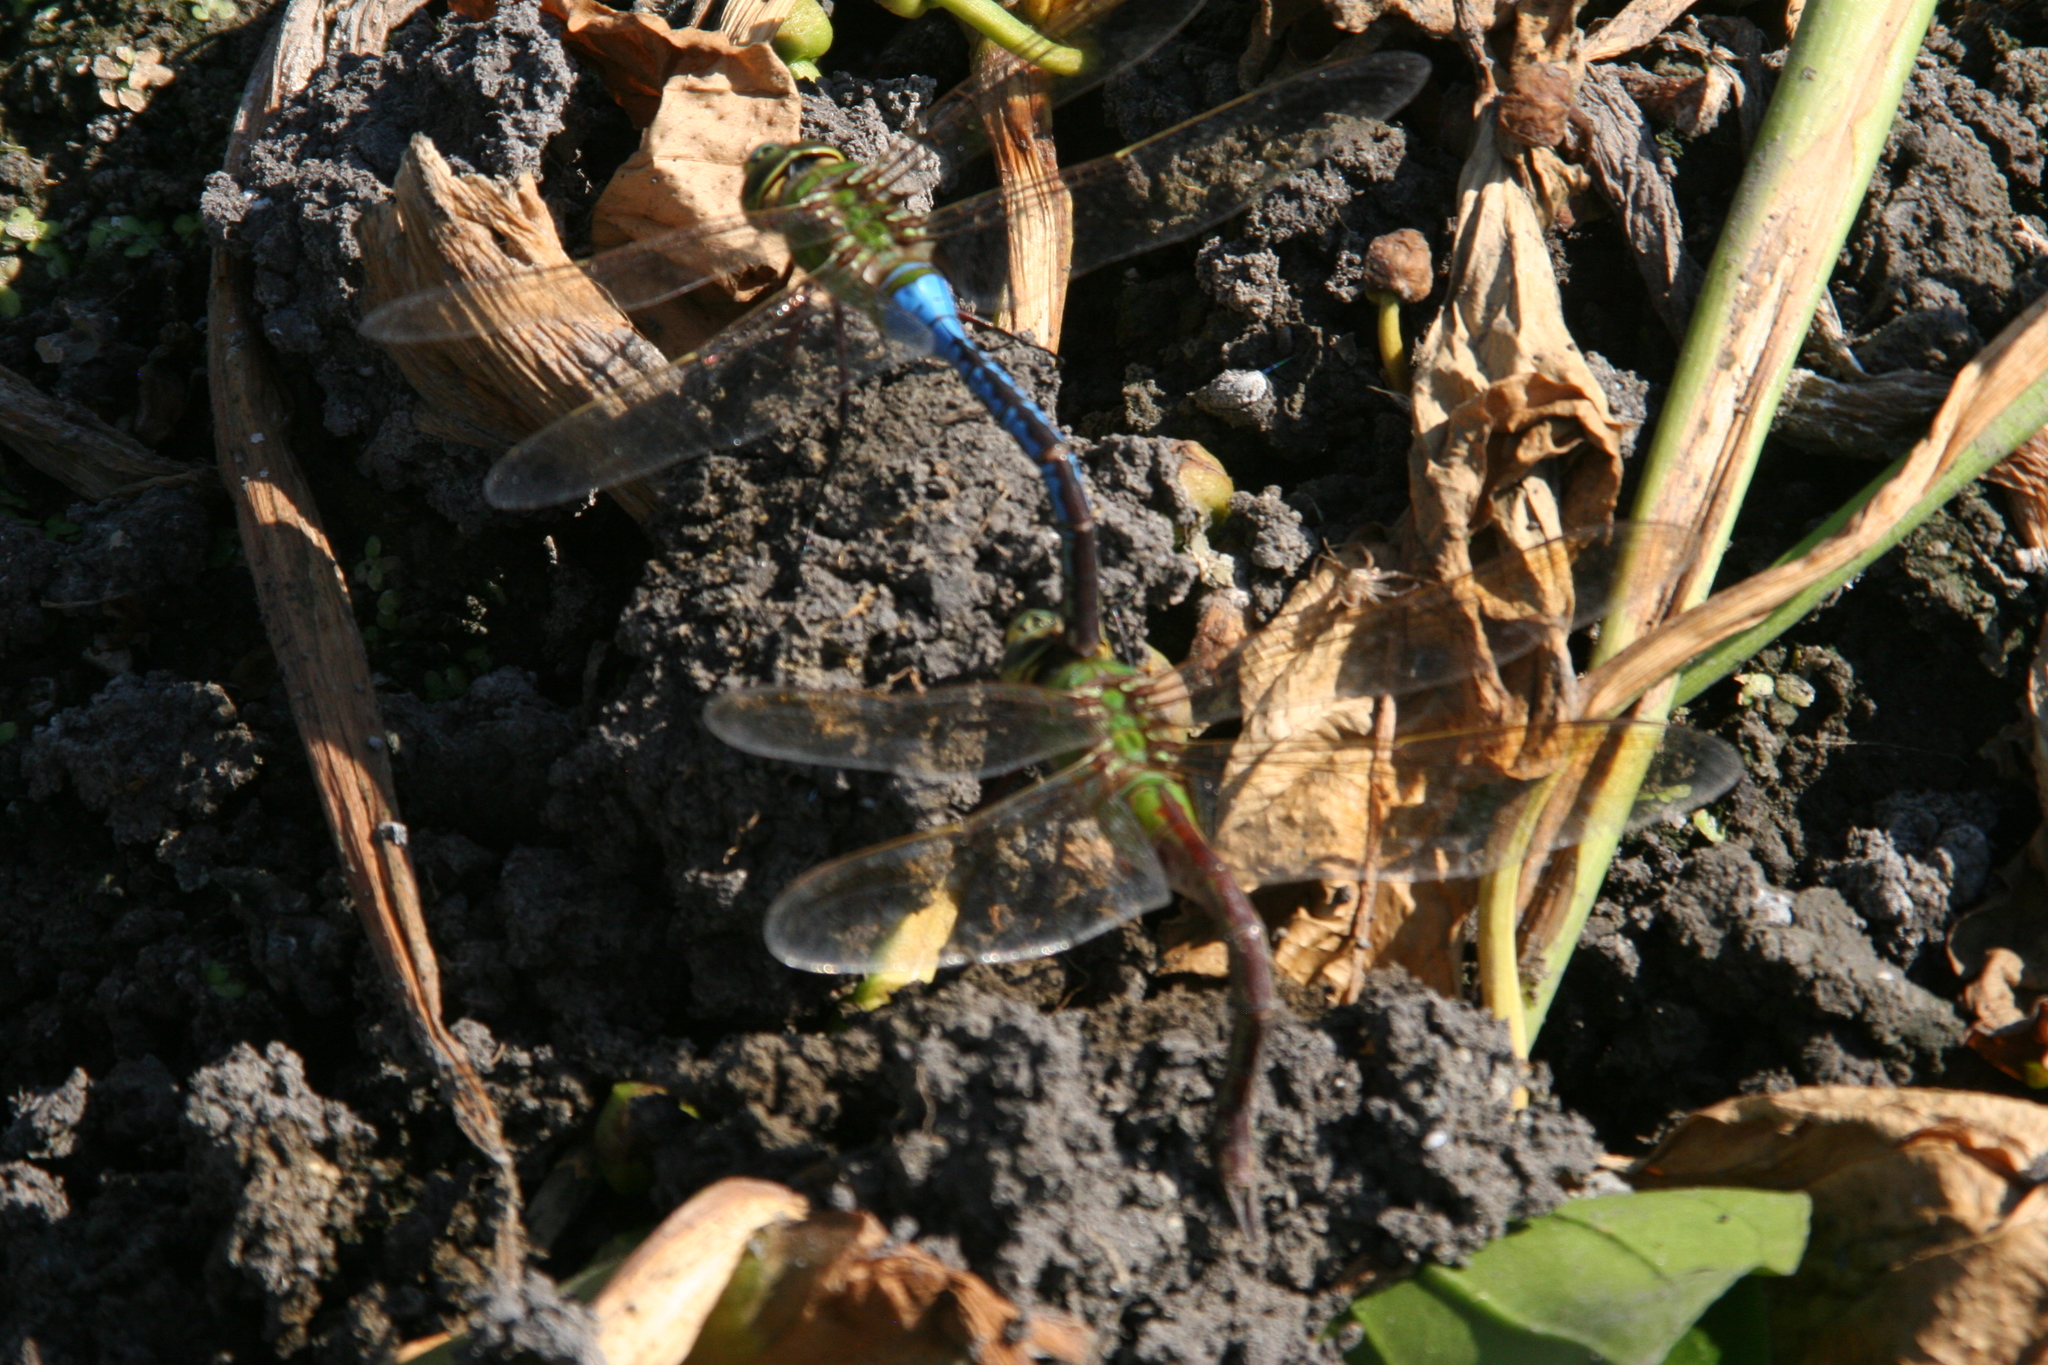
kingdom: Animalia
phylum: Arthropoda
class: Insecta
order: Odonata
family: Aeshnidae
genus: Anax
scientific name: Anax junius
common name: Common green darner
